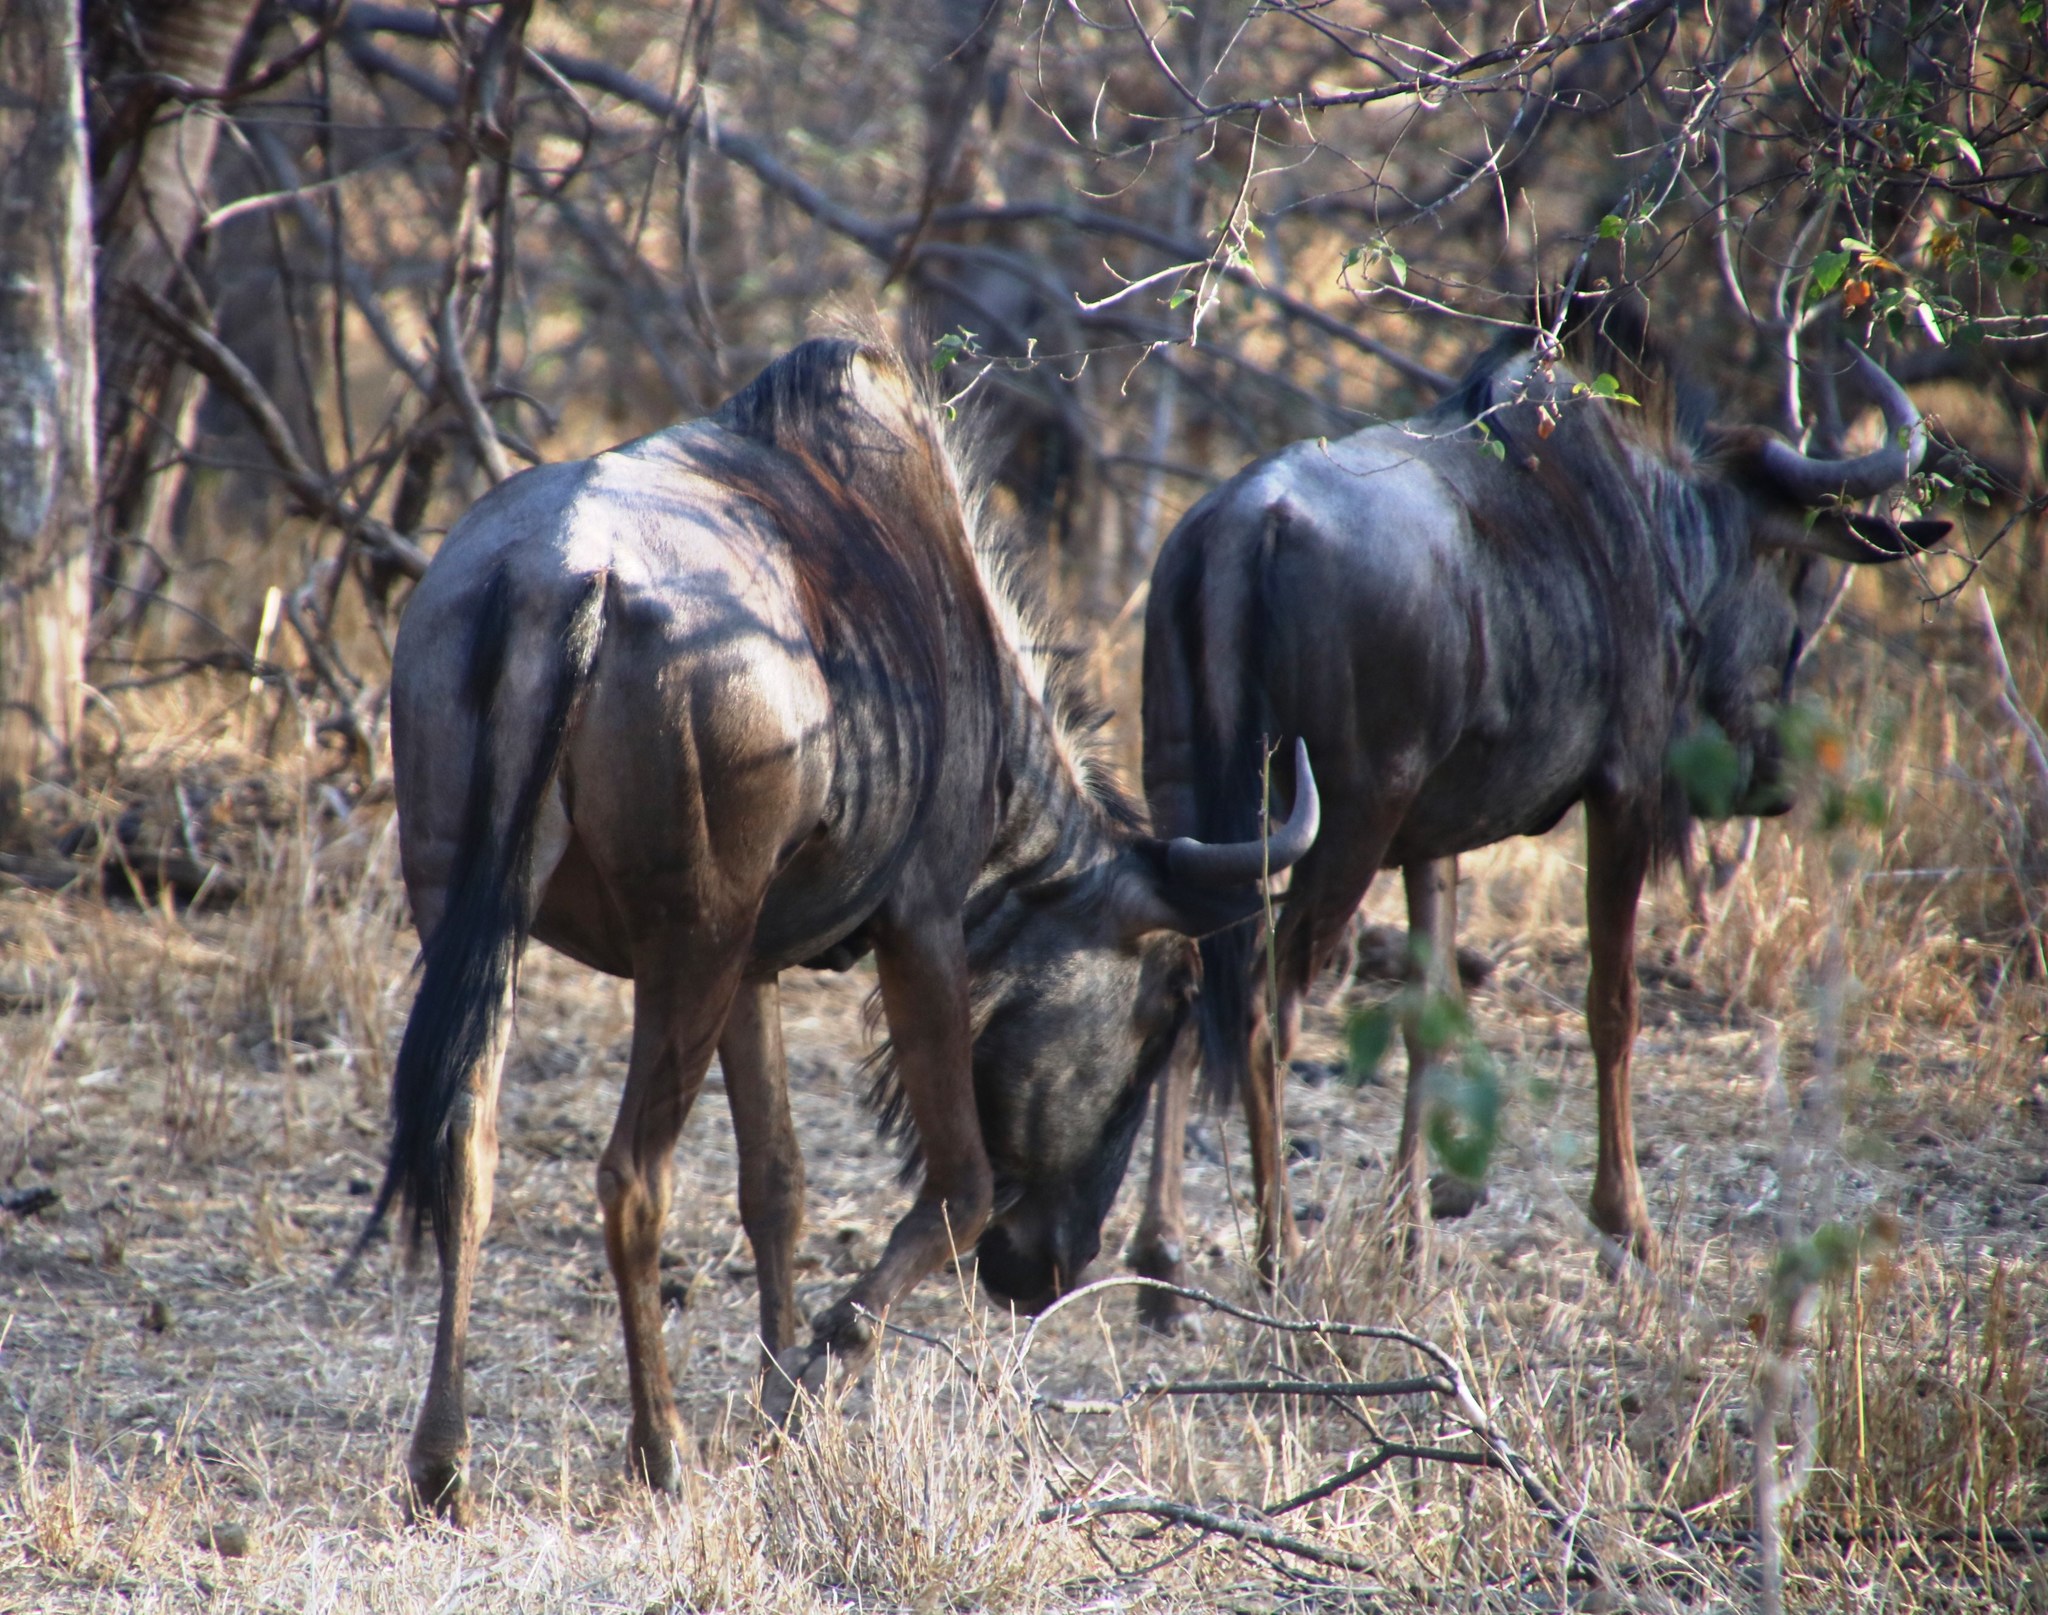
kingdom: Animalia
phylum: Chordata
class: Mammalia
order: Artiodactyla
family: Bovidae
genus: Connochaetes
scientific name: Connochaetes taurinus
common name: Blue wildebeest
